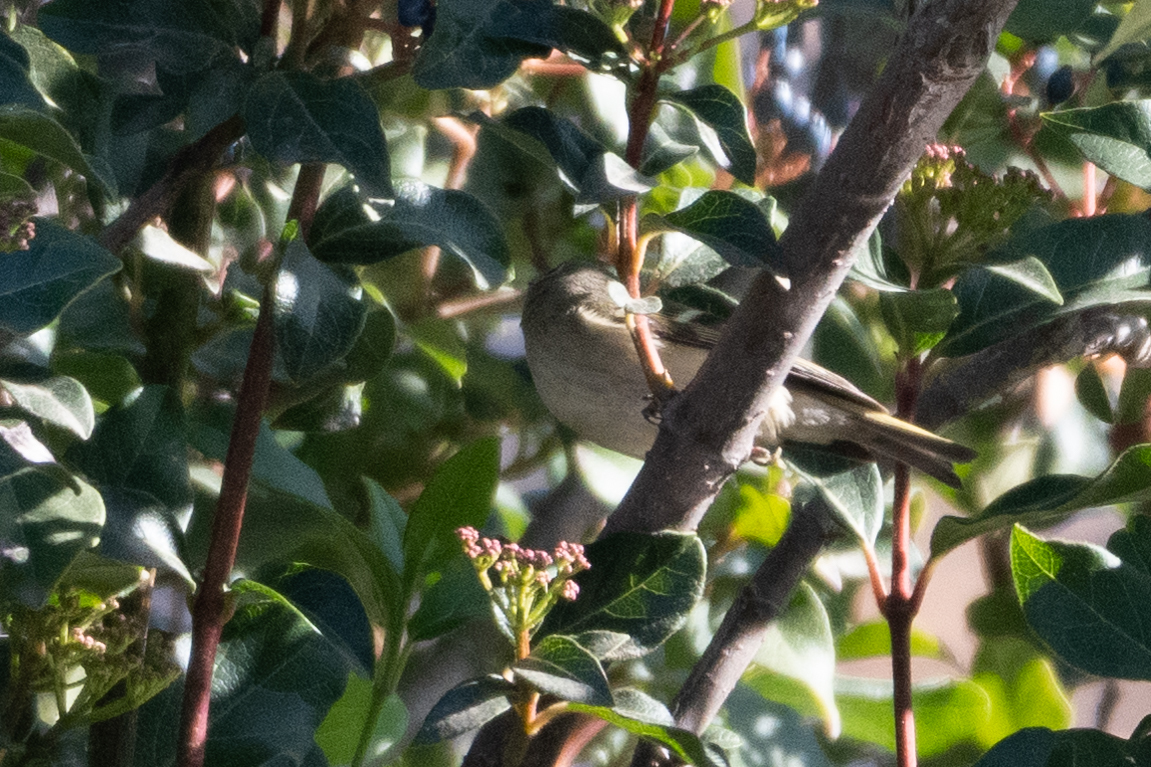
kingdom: Animalia
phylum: Chordata
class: Aves
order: Passeriformes
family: Regulidae
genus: Regulus
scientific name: Regulus calendula
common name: Ruby-crowned kinglet
